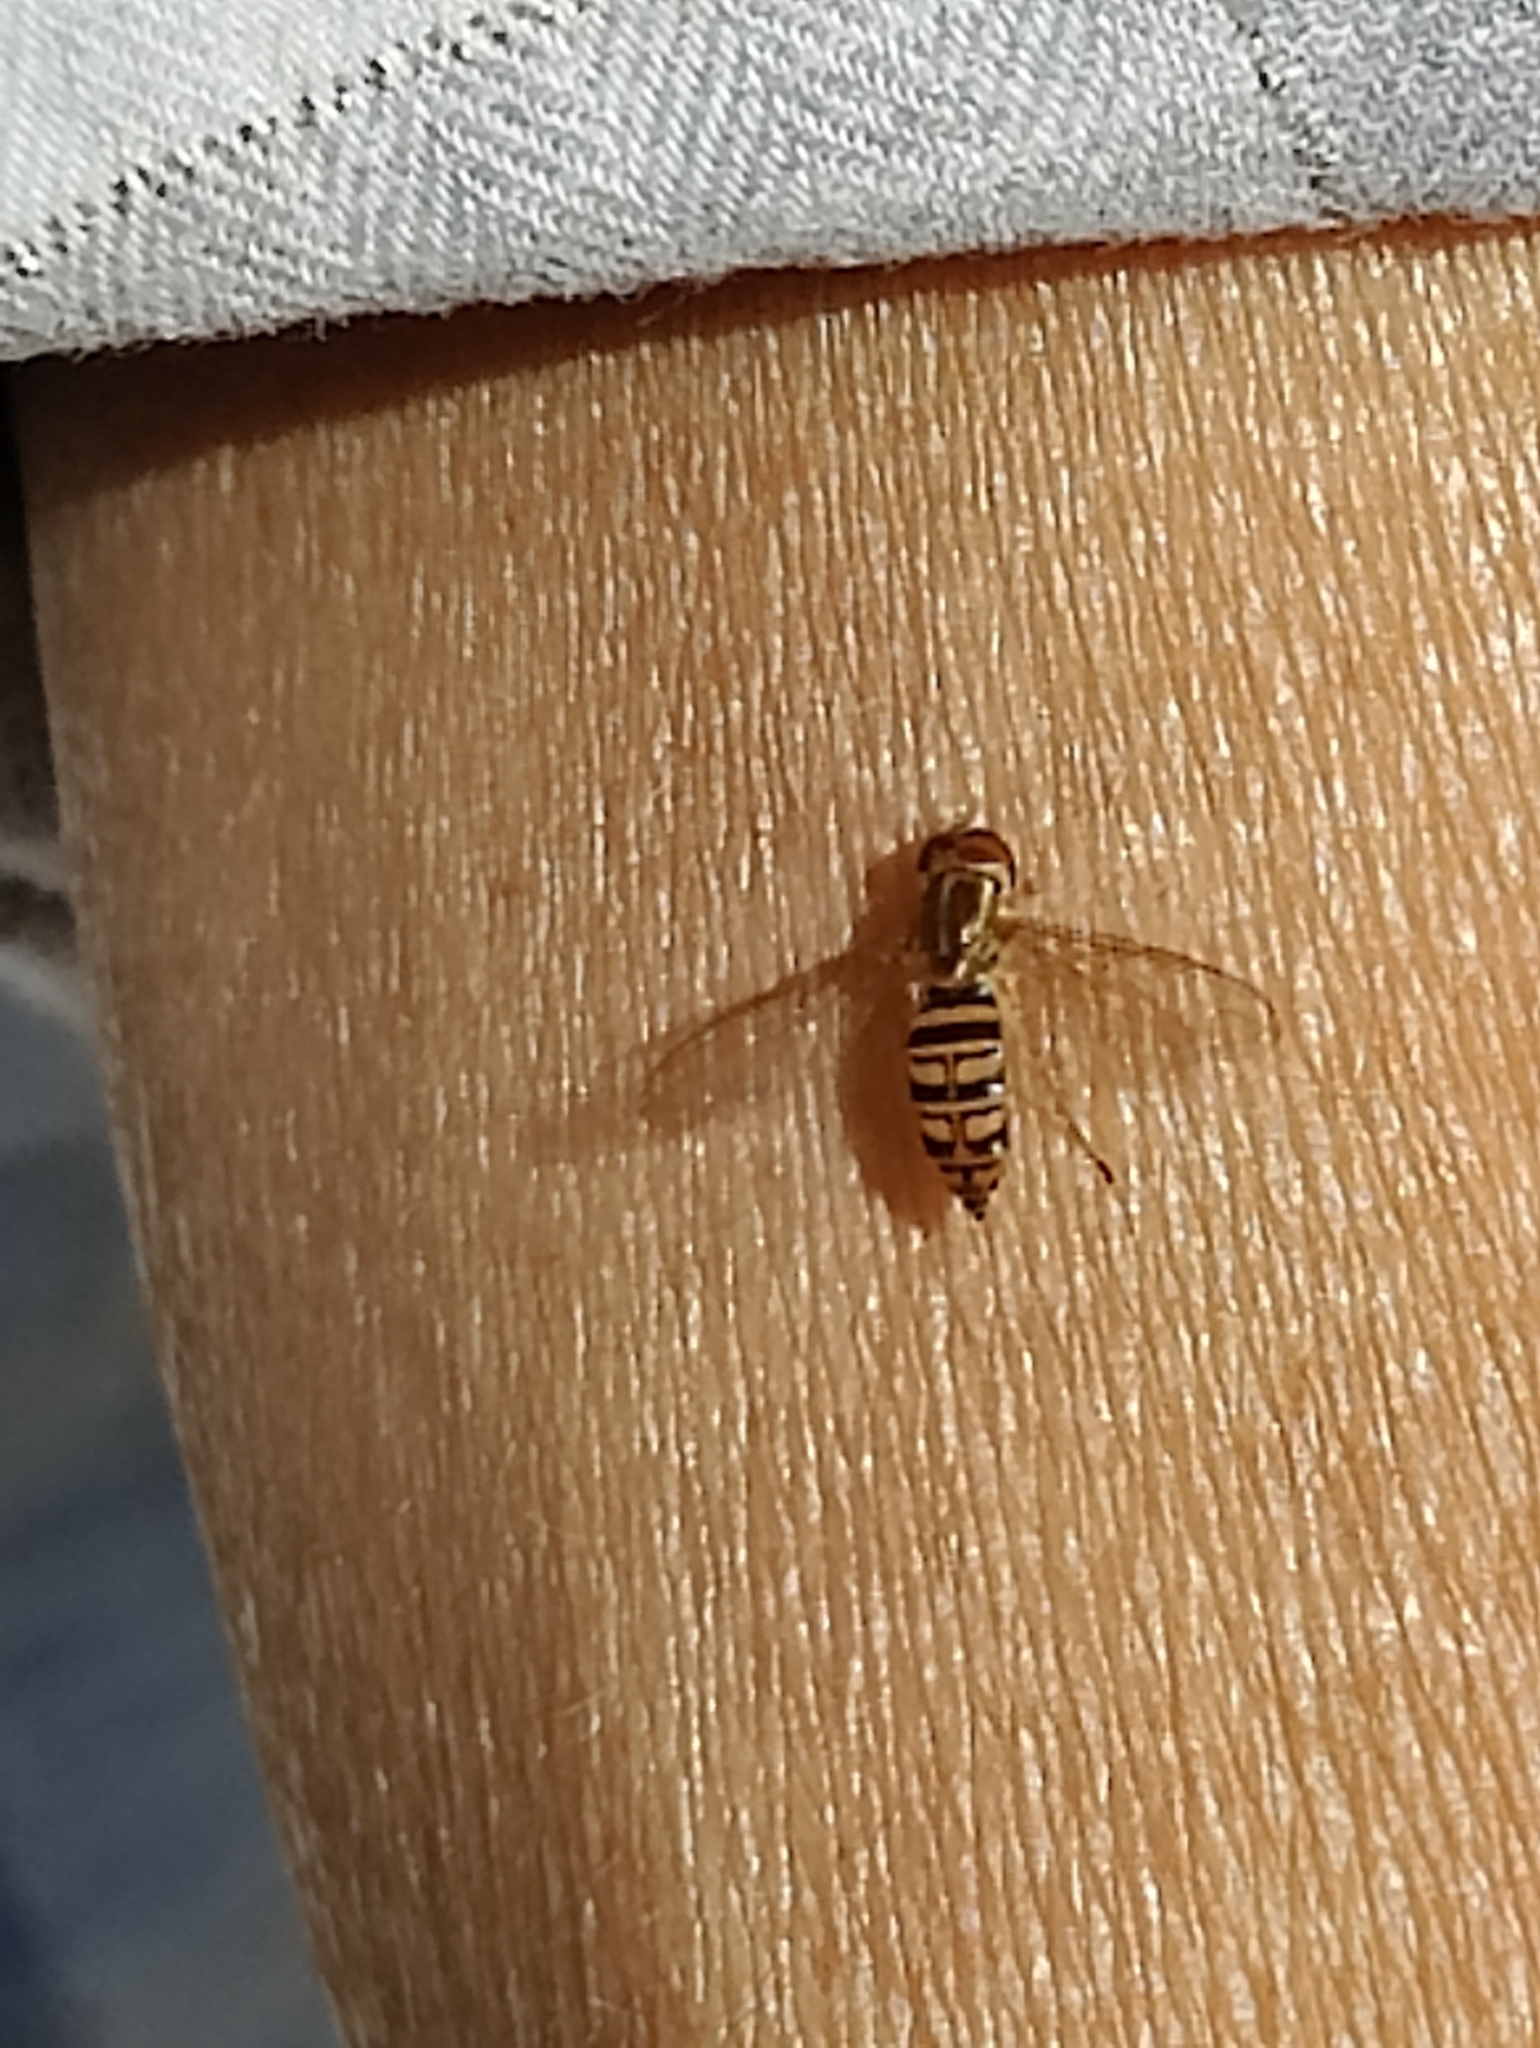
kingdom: Animalia
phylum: Arthropoda
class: Insecta
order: Diptera
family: Syrphidae
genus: Toxomerus
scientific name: Toxomerus politus
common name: Maize calligrapher
